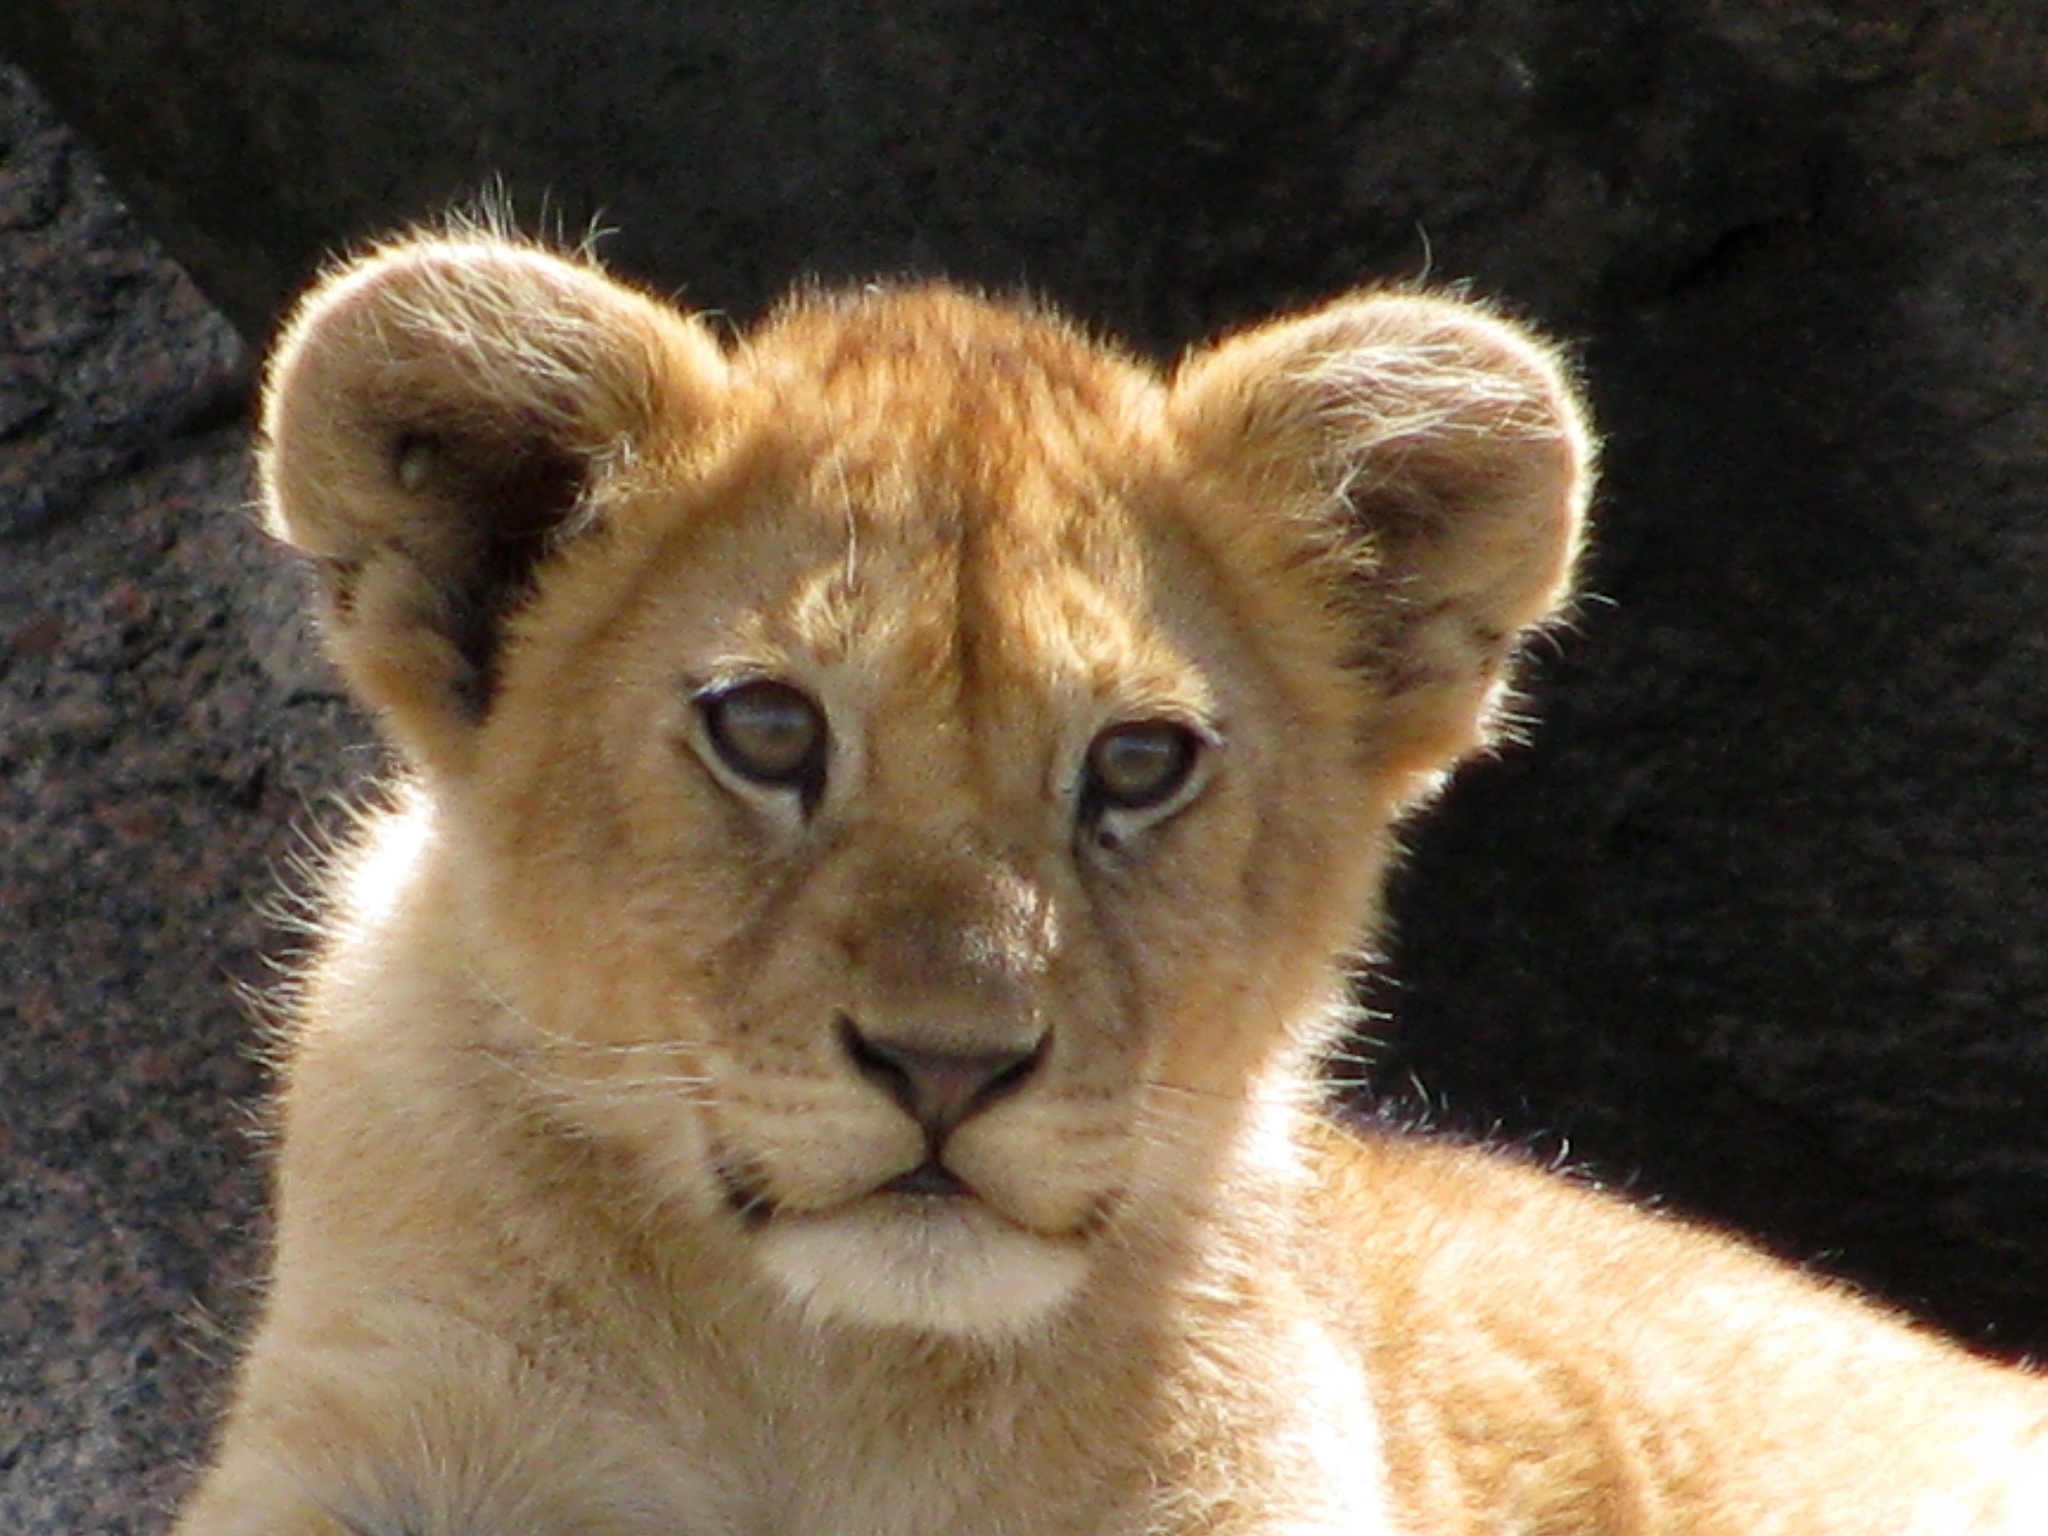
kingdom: Animalia
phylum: Chordata
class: Mammalia
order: Carnivora
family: Felidae
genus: Panthera
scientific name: Panthera leo
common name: Lion
